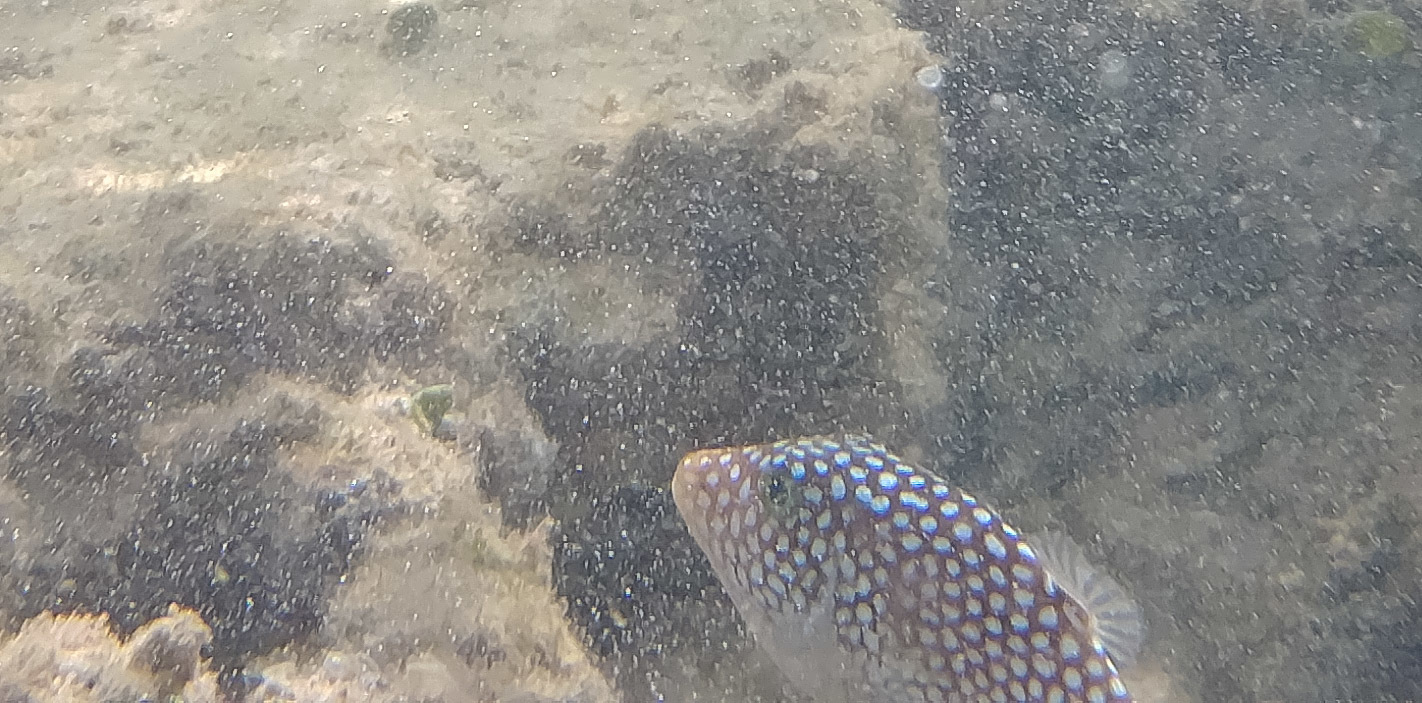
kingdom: Animalia
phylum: Chordata
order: Tetraodontiformes
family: Tetraodontidae
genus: Canthigaster
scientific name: Canthigaster jactator
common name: Hawaiian whitespotted toby
